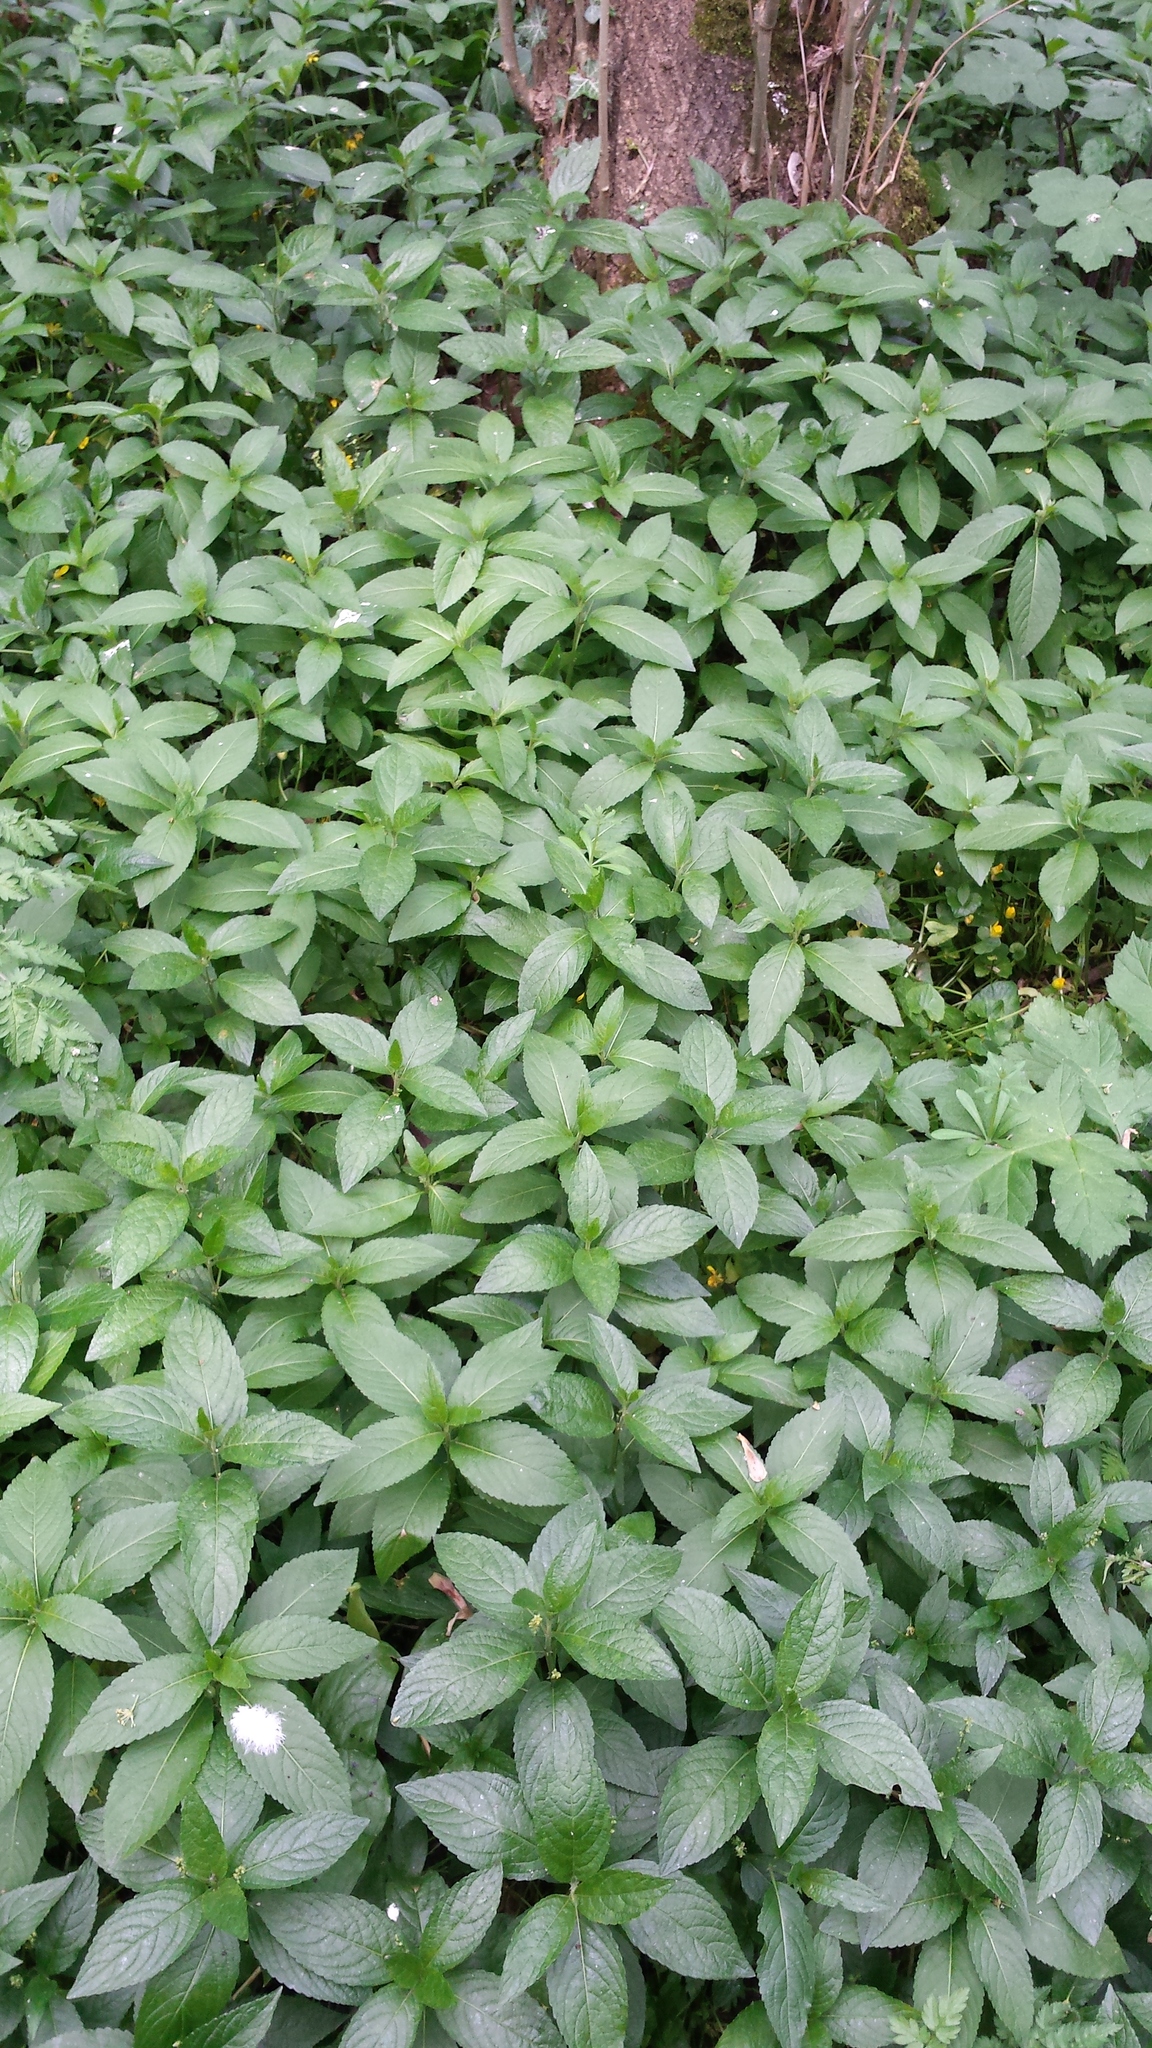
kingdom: Plantae
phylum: Tracheophyta
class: Magnoliopsida
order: Malpighiales
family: Euphorbiaceae
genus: Mercurialis
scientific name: Mercurialis perennis
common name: Dog mercury
